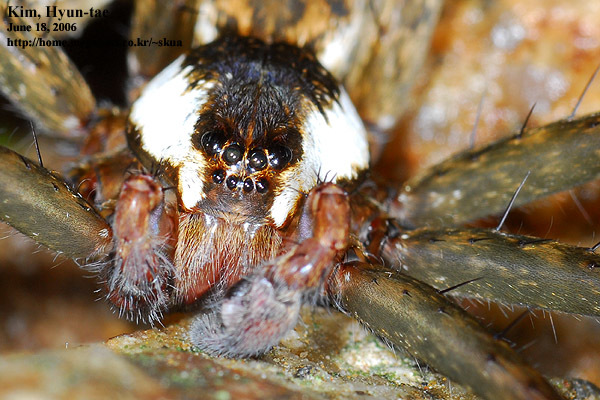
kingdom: Animalia
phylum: Arthropoda
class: Arachnida
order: Araneae
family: Pisauridae
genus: Dolomedes
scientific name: Dolomedes raptor
